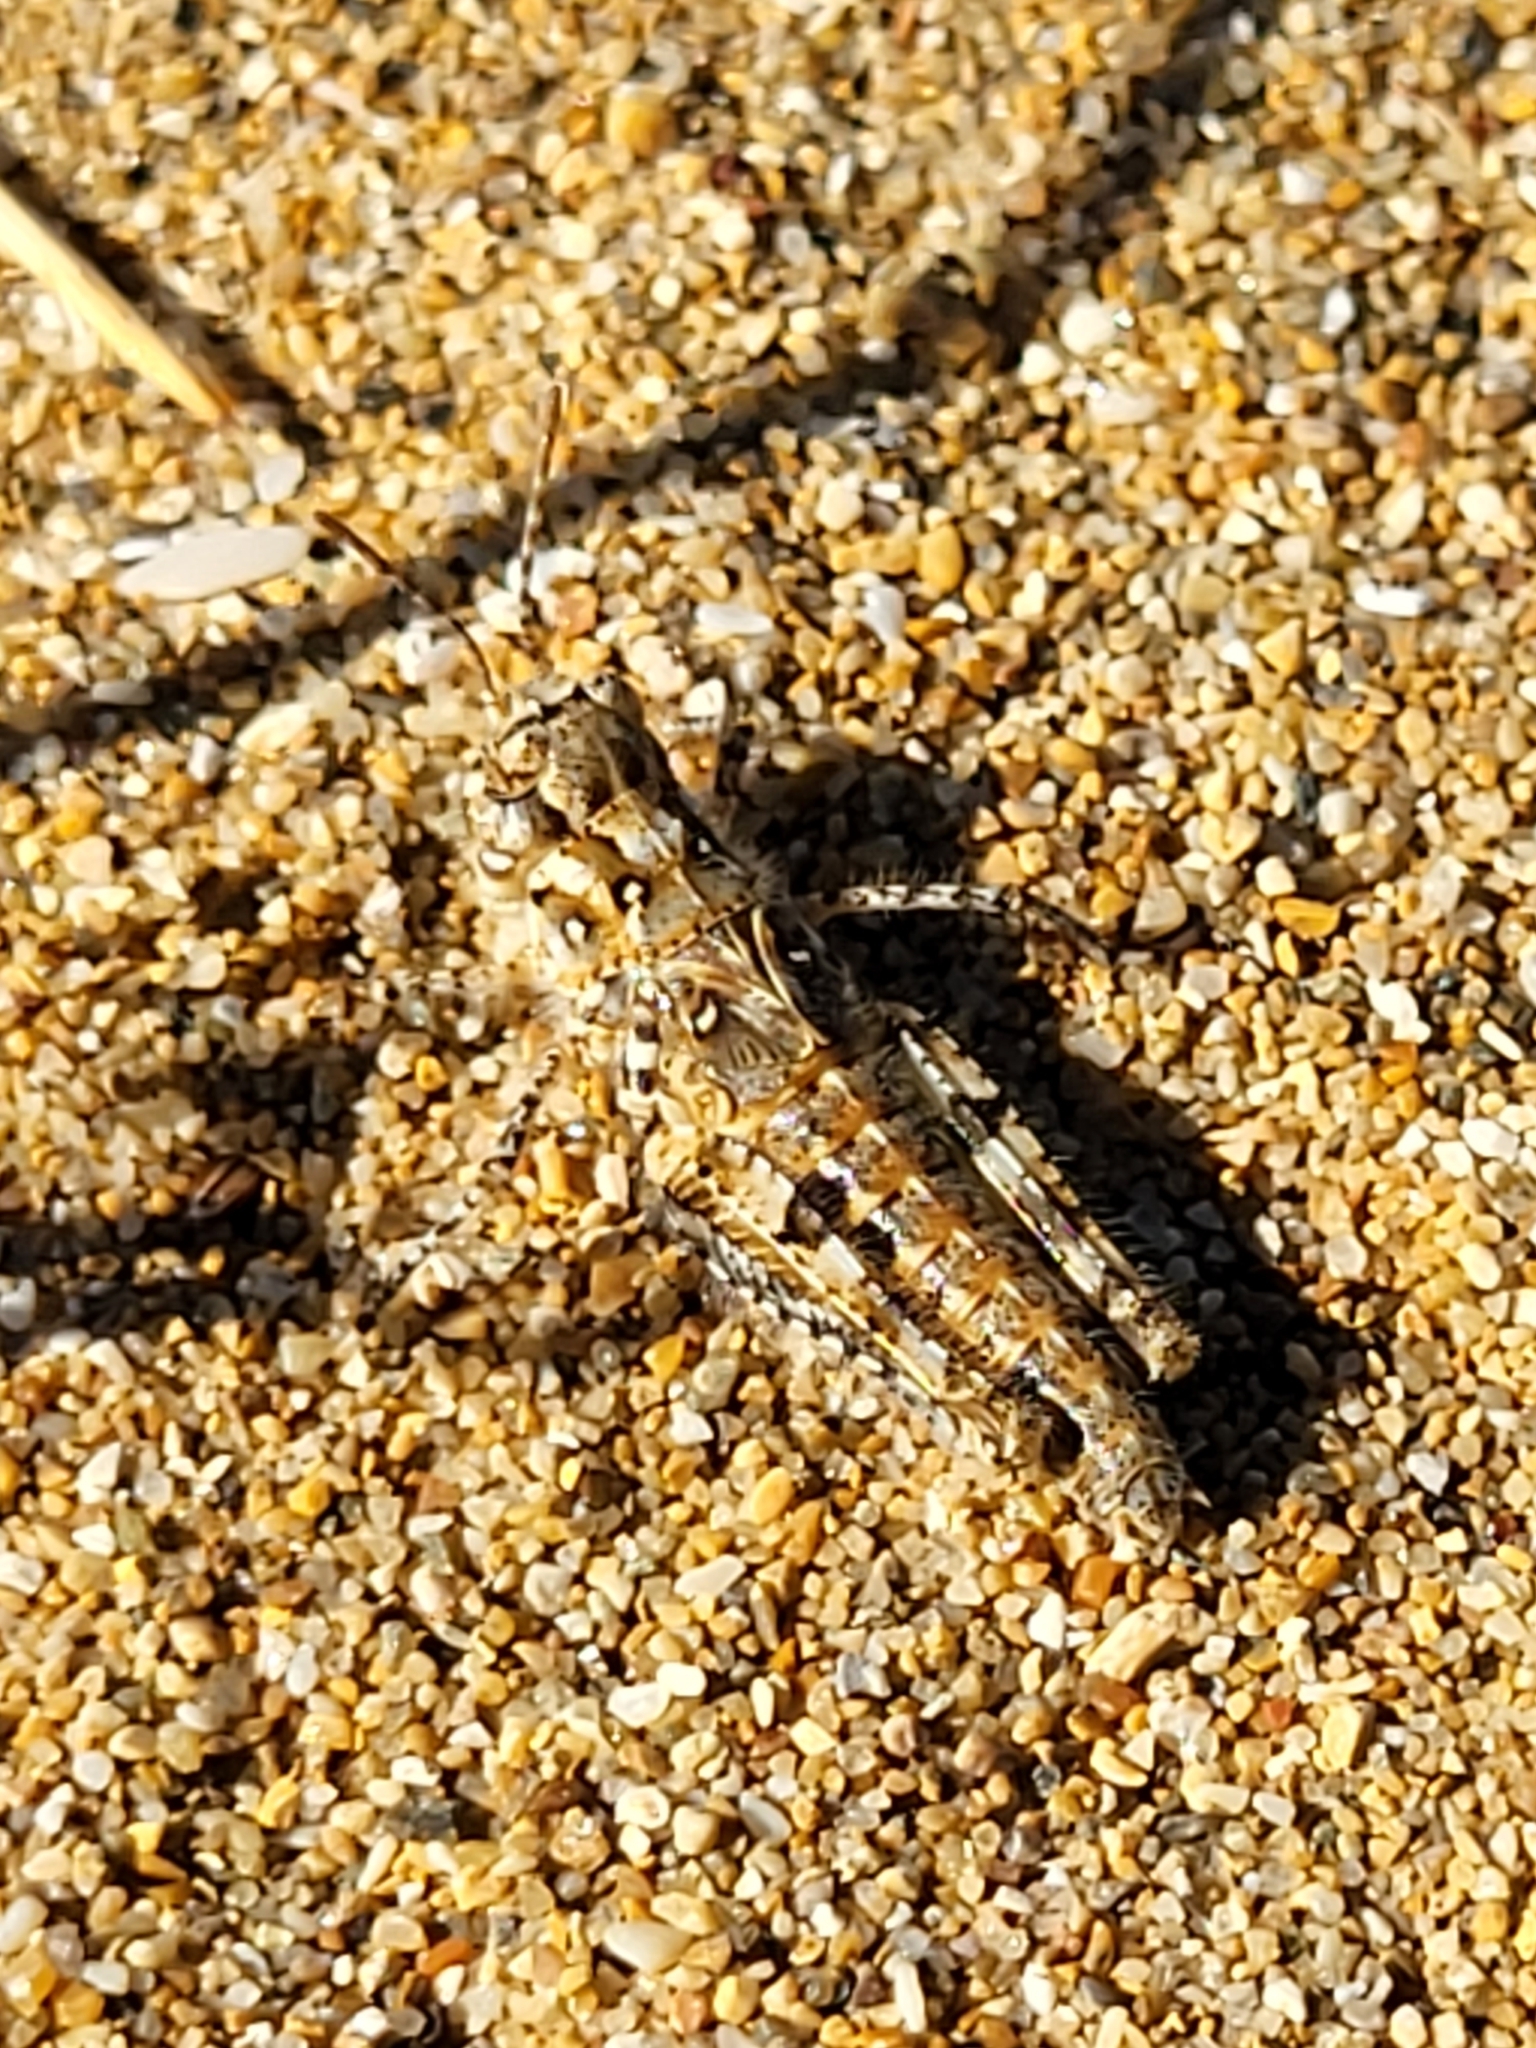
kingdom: Animalia
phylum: Arthropoda
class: Insecta
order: Orthoptera
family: Acrididae
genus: Acrotylus
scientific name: Acrotylus
